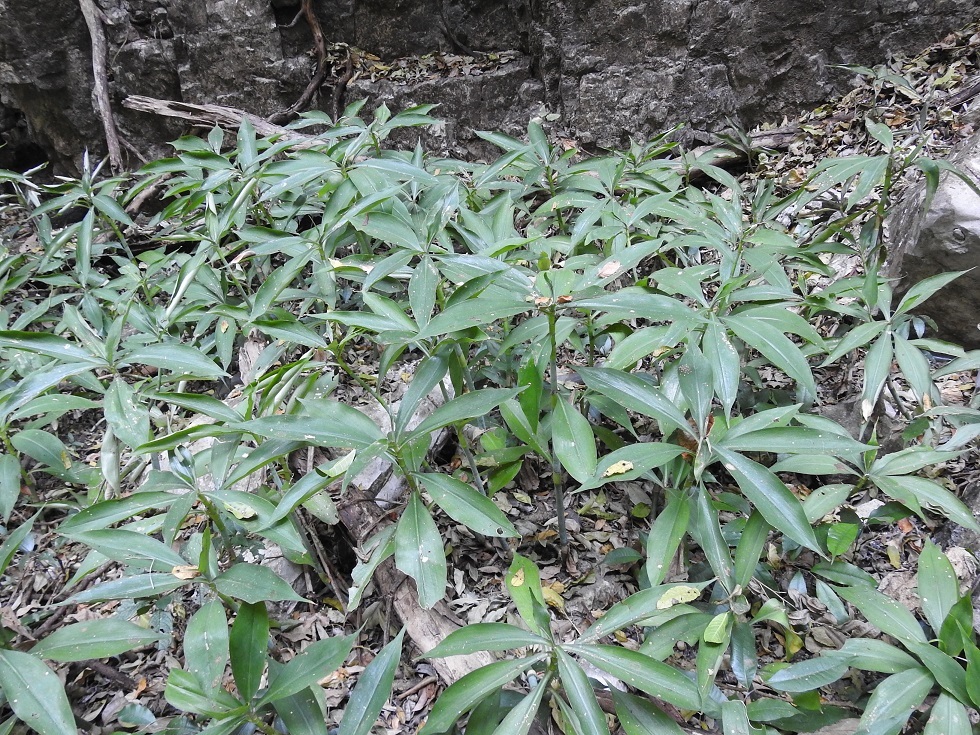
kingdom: Plantae
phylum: Tracheophyta
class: Liliopsida
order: Commelinales
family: Commelinaceae
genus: Tradescantia
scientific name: Tradescantia zanonia
